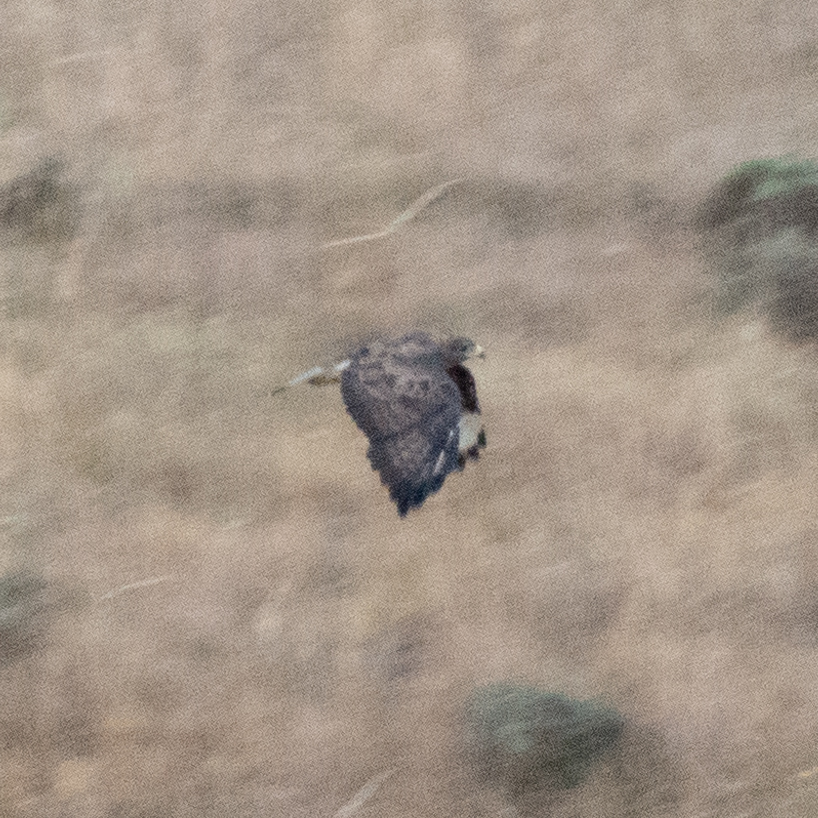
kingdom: Animalia
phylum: Chordata
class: Aves
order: Accipitriformes
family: Accipitridae
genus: Buteo
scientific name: Buteo buteo
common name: Common buzzard
